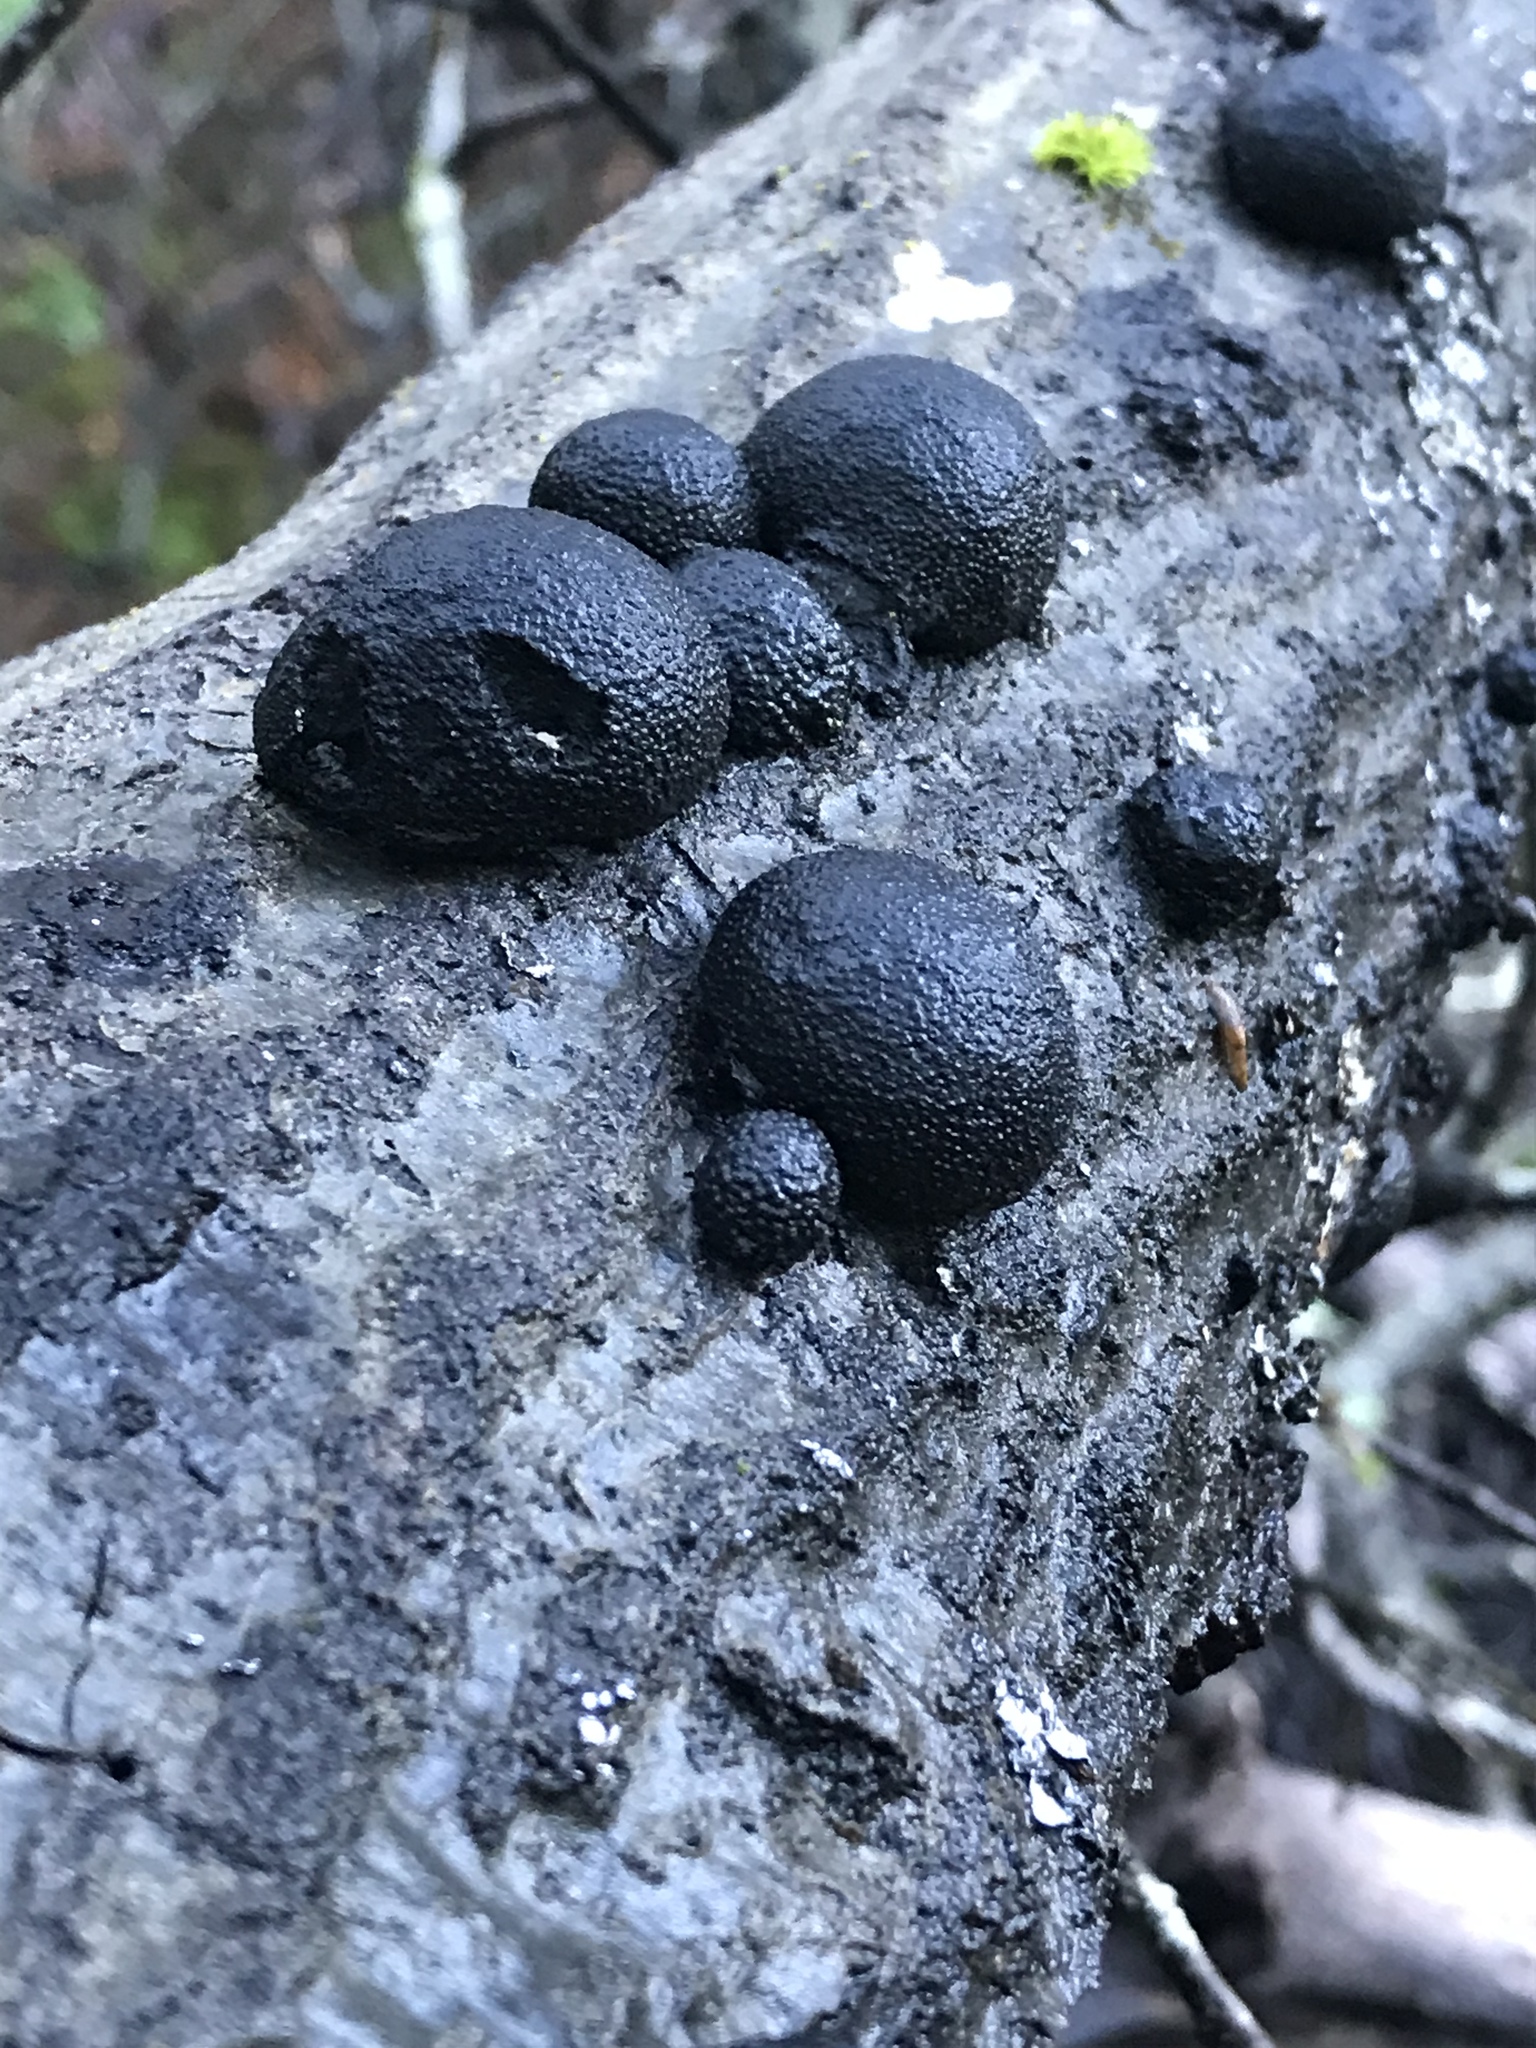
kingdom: Fungi
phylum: Ascomycota
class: Sordariomycetes
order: Xylariales
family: Hypoxylaceae
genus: Annulohypoxylon
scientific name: Annulohypoxylon thouarsianum
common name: Cramp balls
